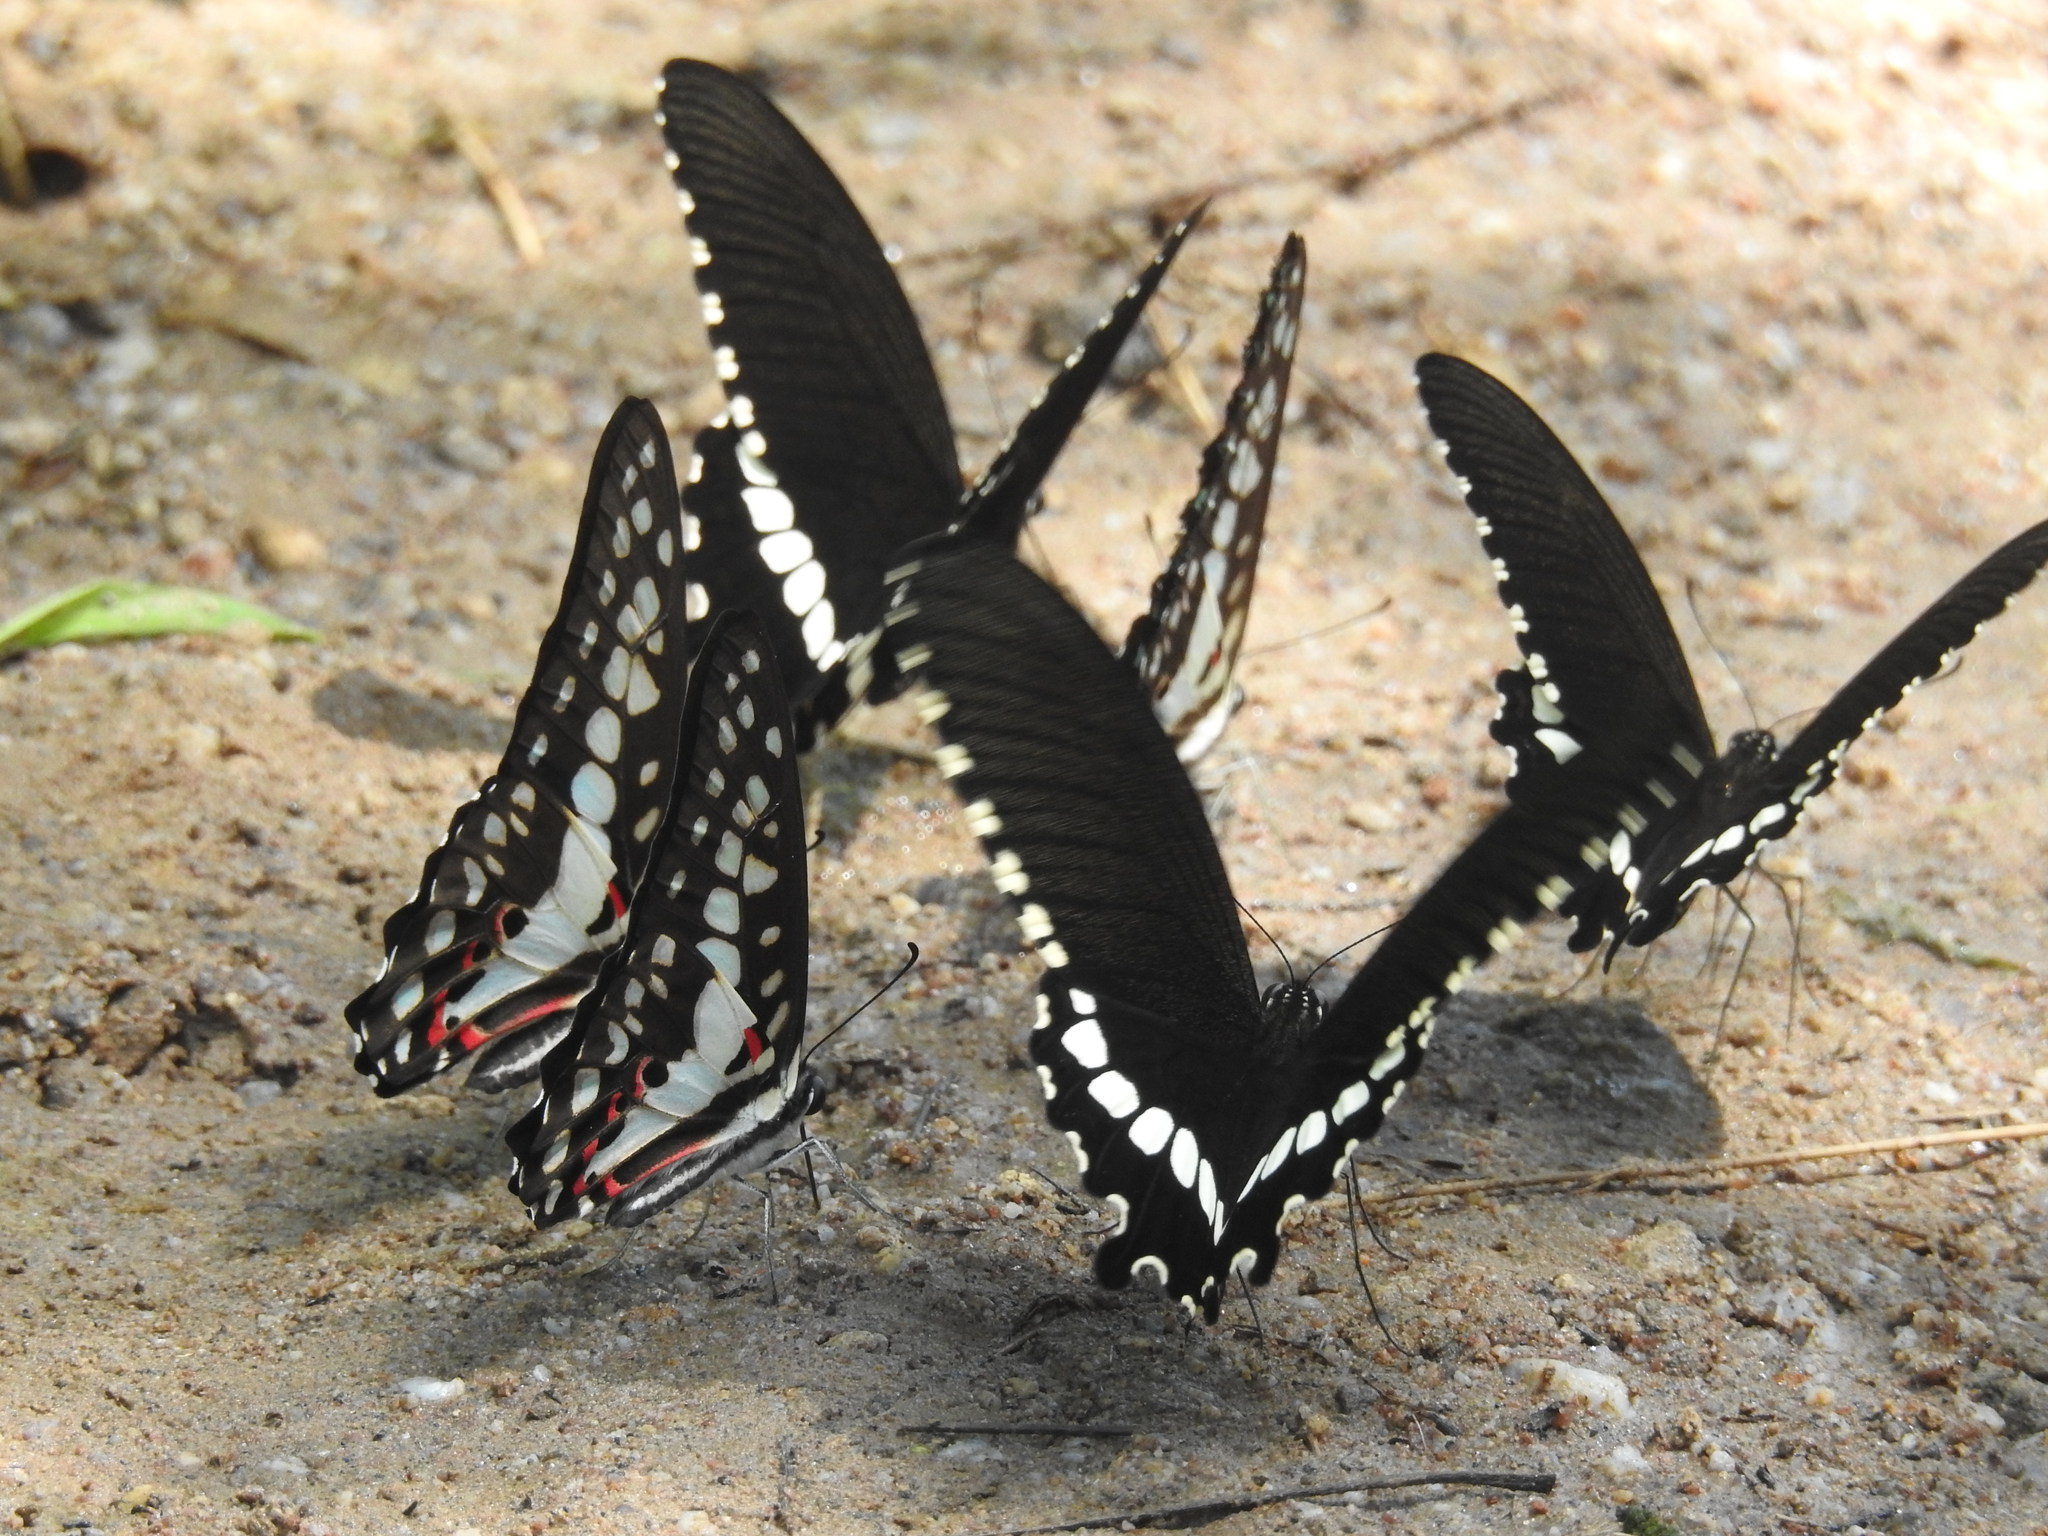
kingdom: Animalia
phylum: Arthropoda
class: Insecta
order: Lepidoptera
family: Papilionidae
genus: Papilio
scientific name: Papilio polytes
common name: Common mormon
